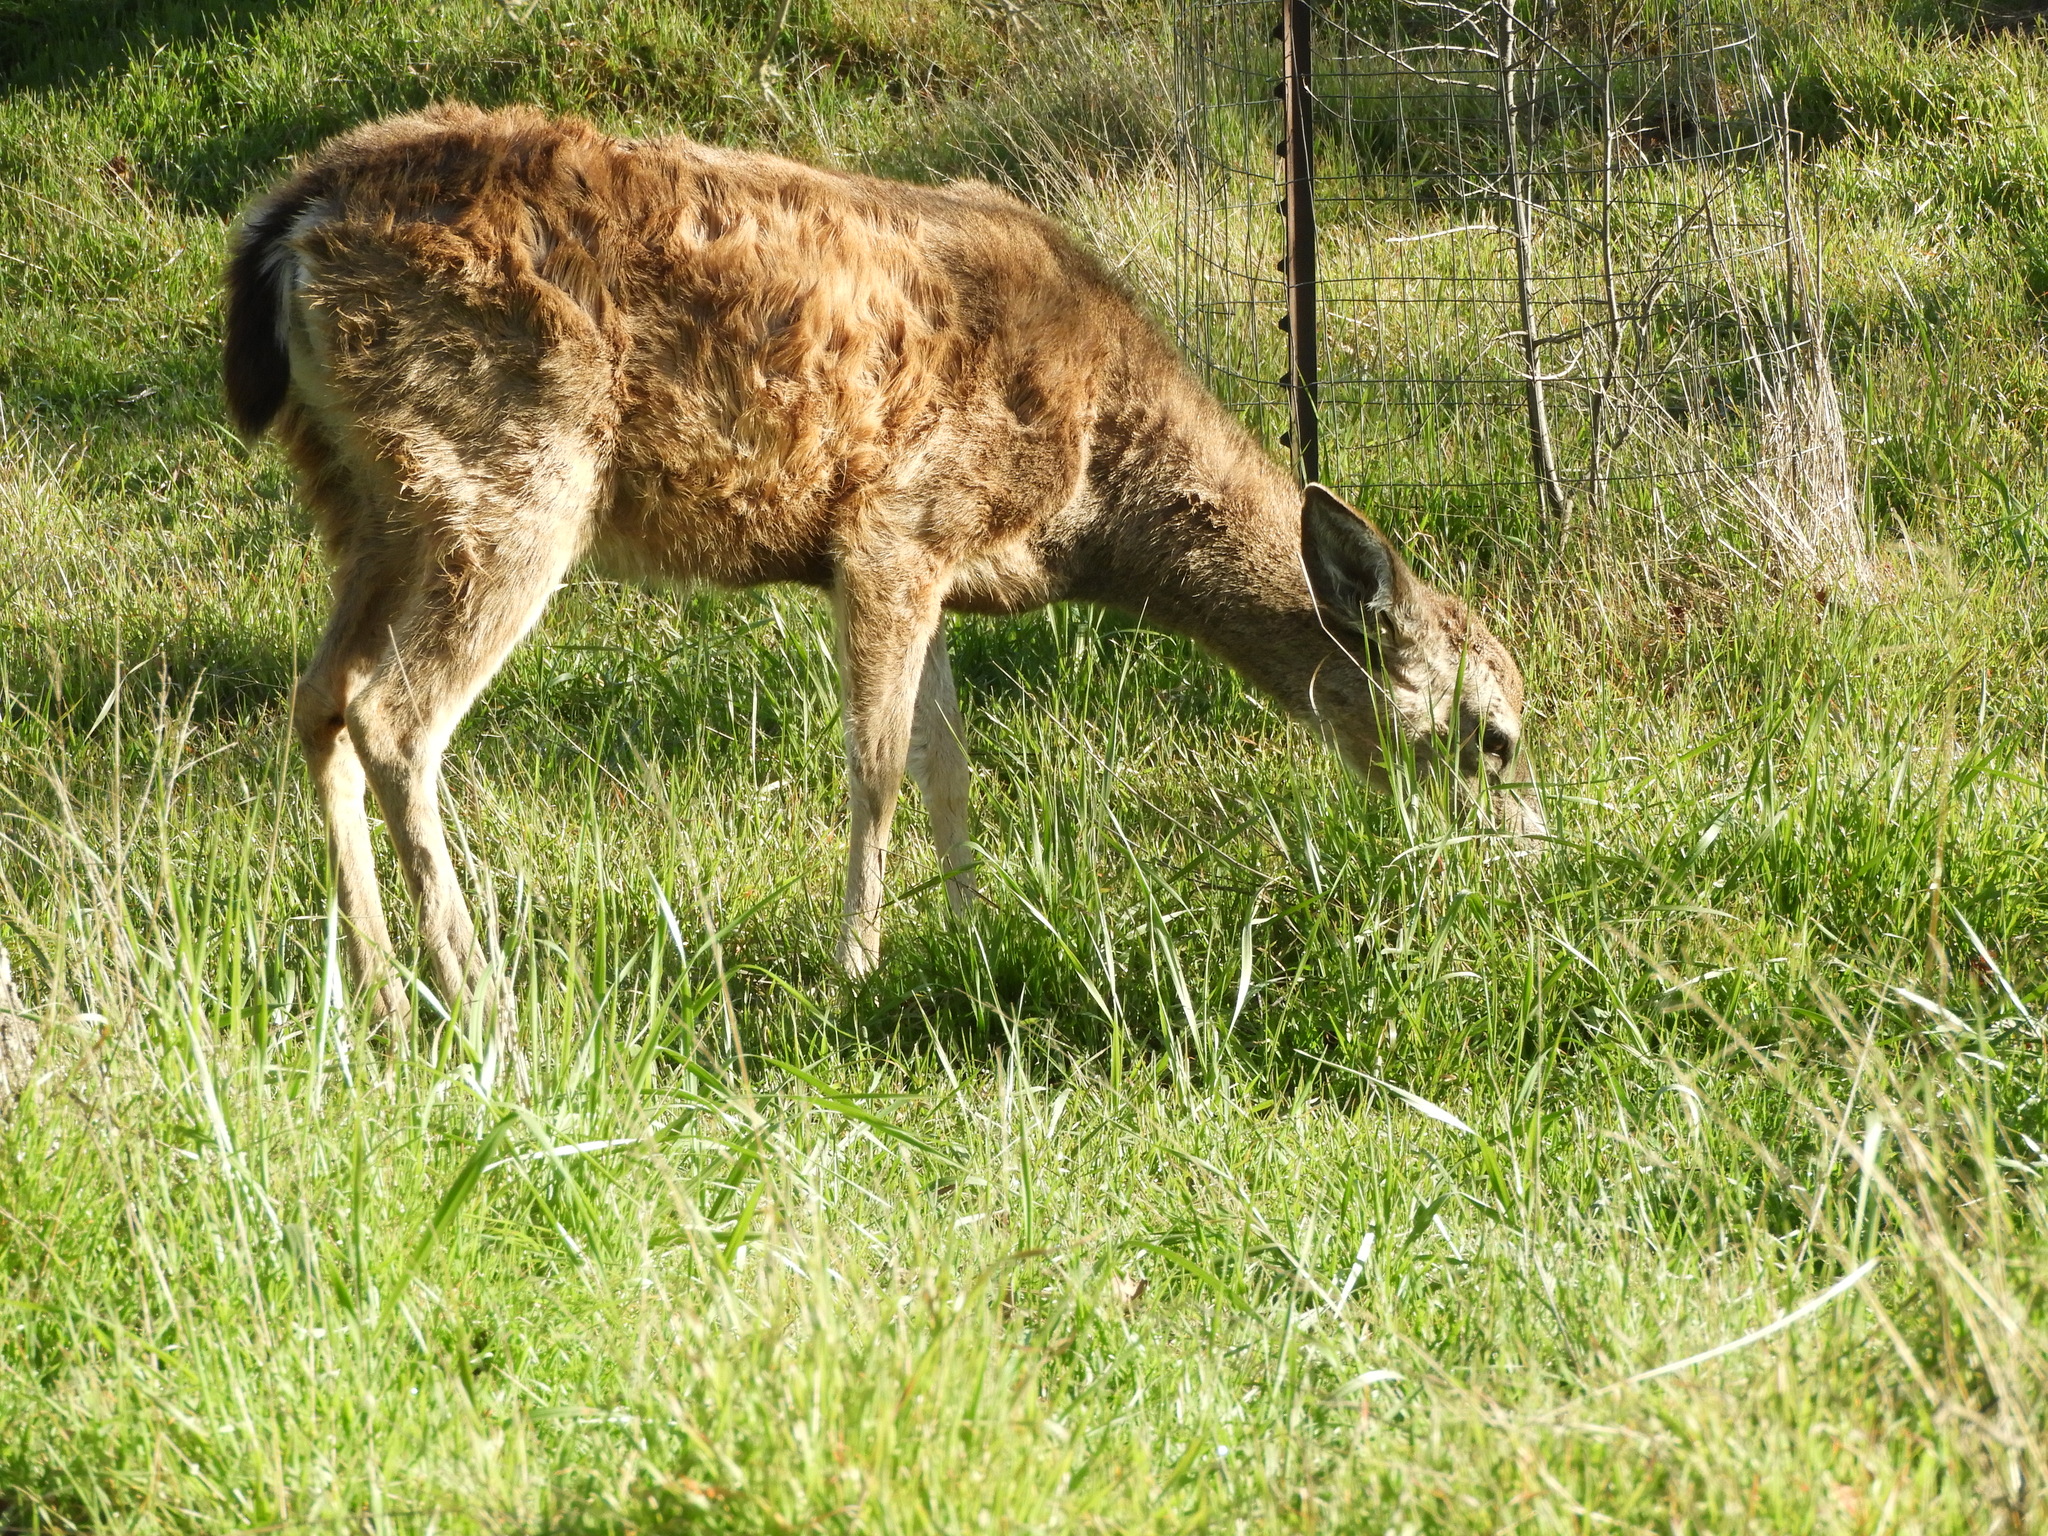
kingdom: Animalia
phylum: Chordata
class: Mammalia
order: Artiodactyla
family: Cervidae
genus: Odocoileus
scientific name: Odocoileus hemionus
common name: Mule deer
